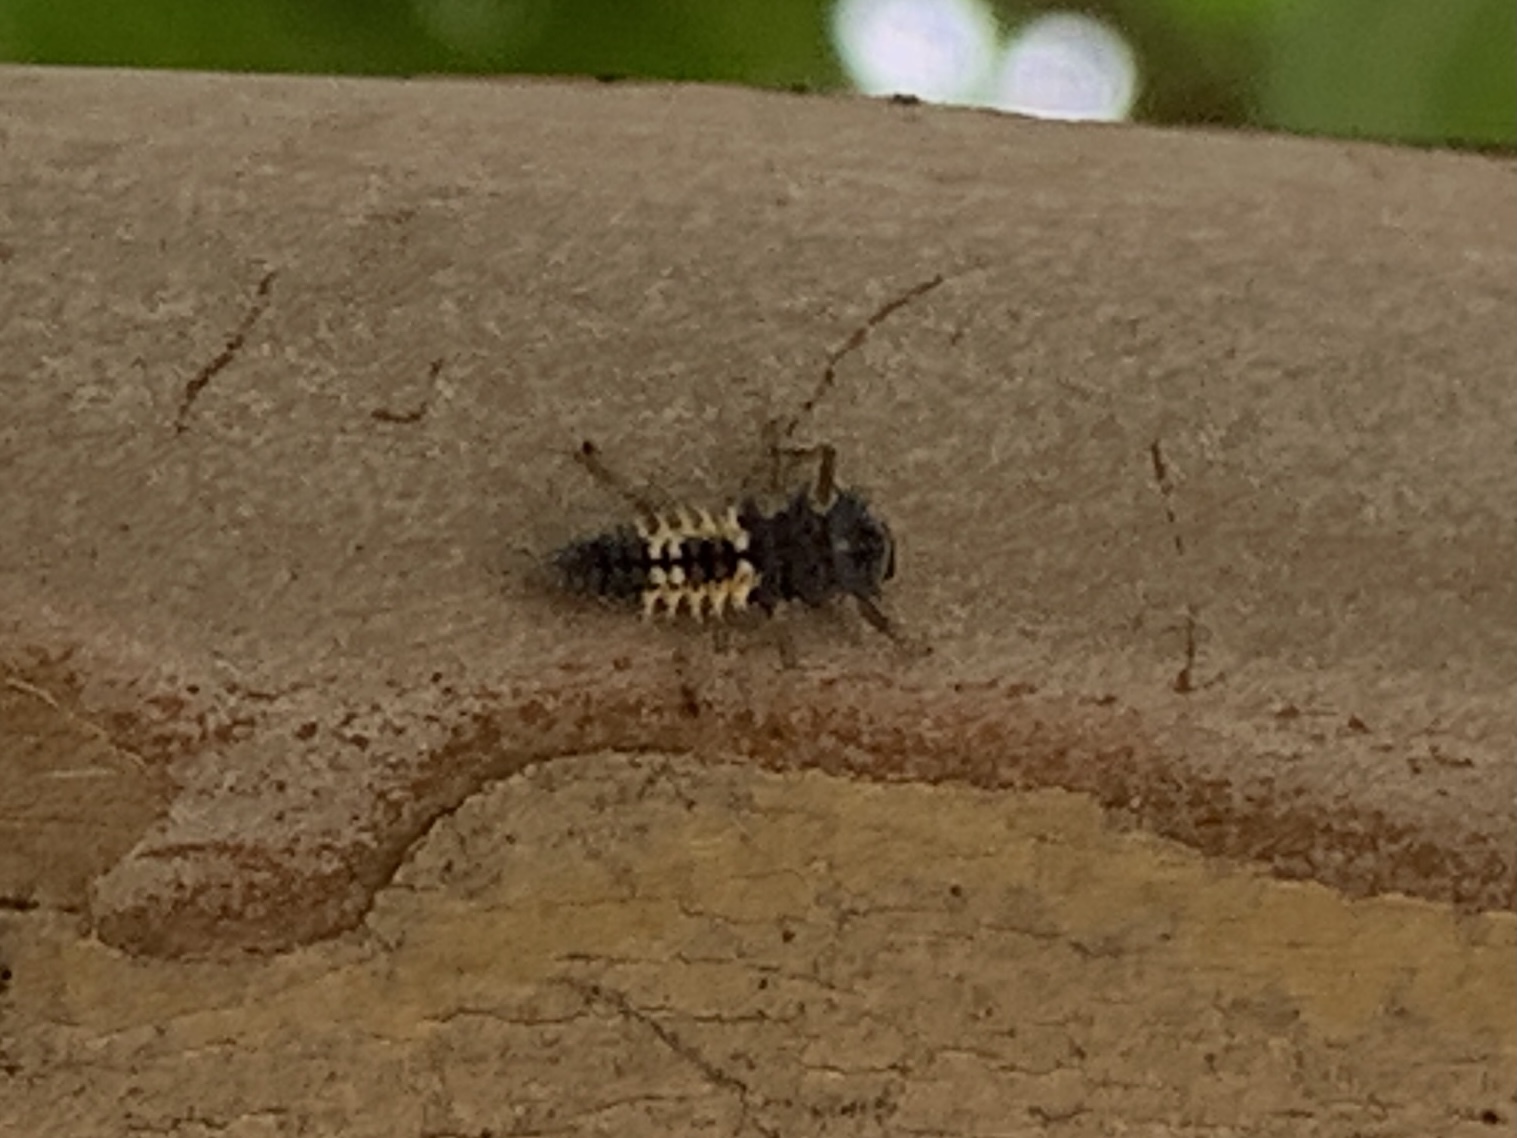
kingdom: Animalia
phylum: Arthropoda
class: Insecta
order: Coleoptera
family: Coccinellidae
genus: Harmonia
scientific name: Harmonia axyridis
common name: Harlequin ladybird
